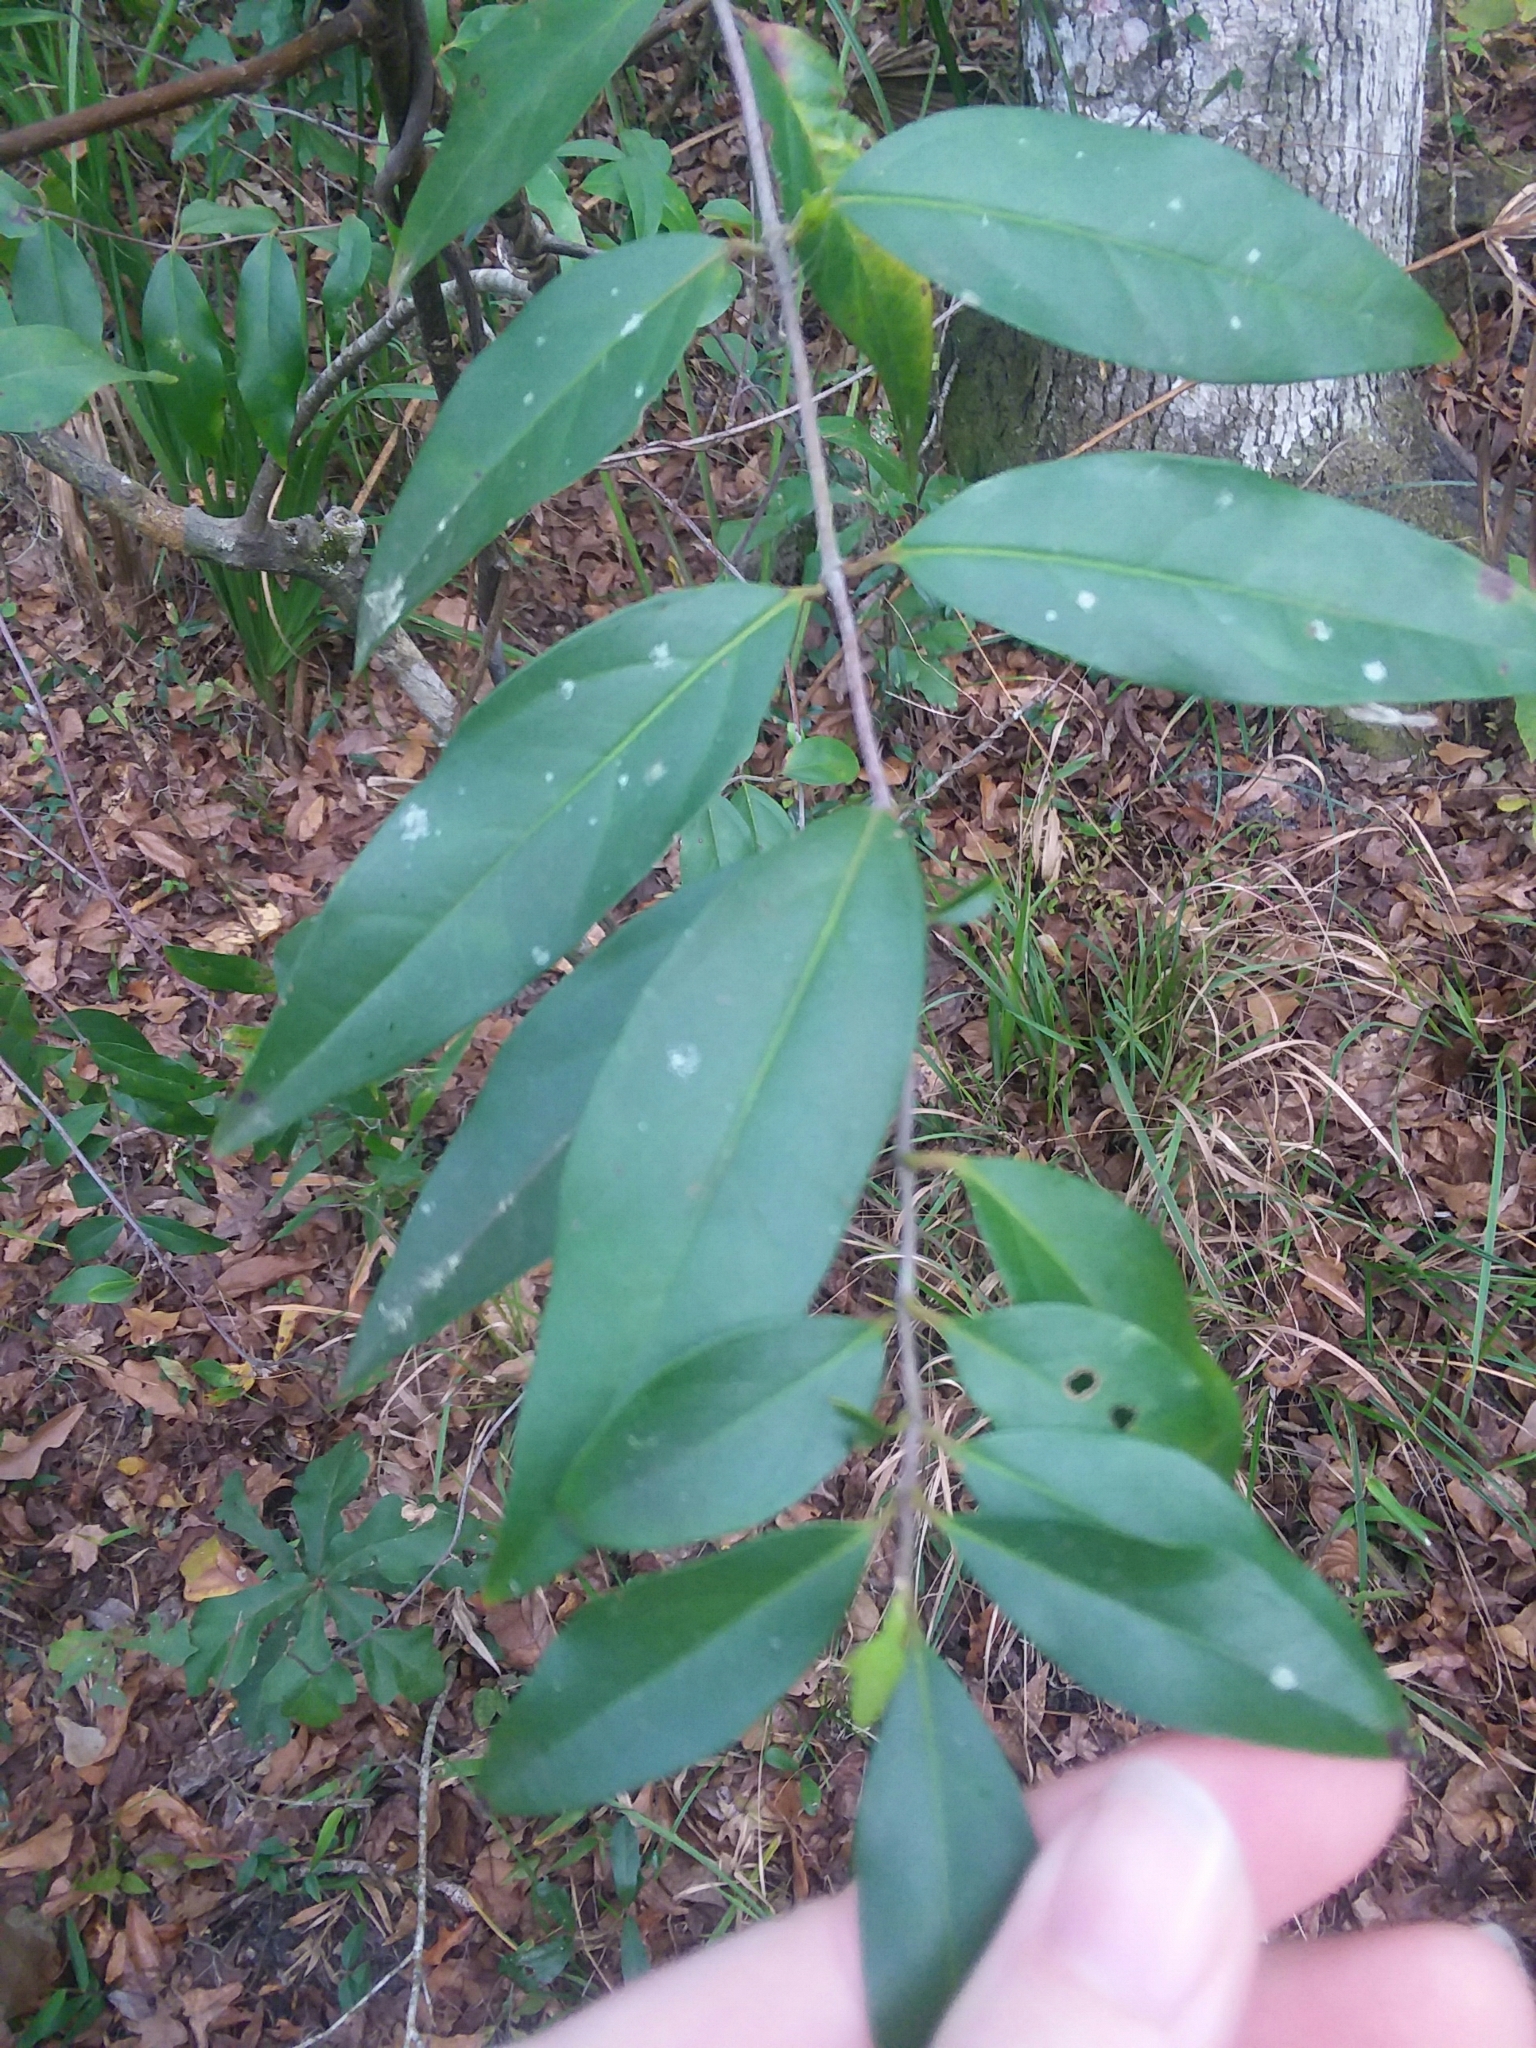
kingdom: Plantae
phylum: Tracheophyta
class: Magnoliopsida
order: Gentianales
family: Gelsemiaceae
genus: Gelsemium
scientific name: Gelsemium sempervirens
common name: Carolina-jasmine
